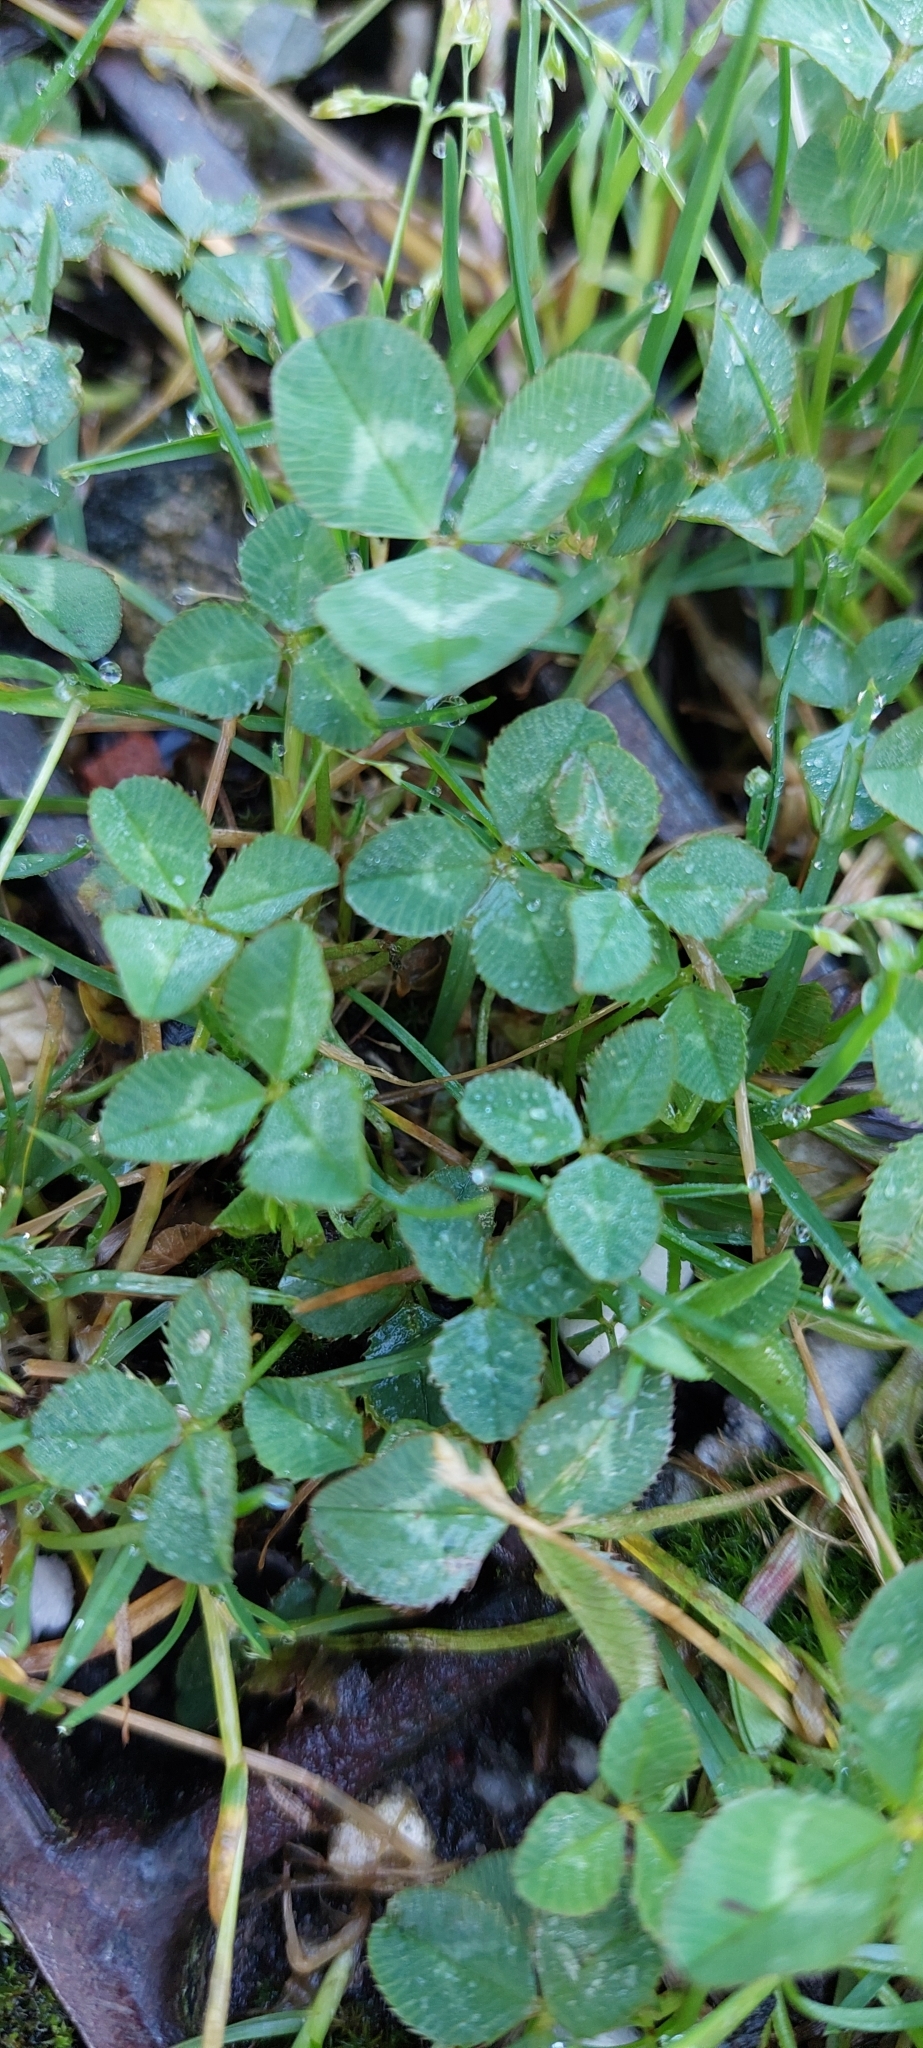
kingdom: Plantae
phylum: Tracheophyta
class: Magnoliopsida
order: Fabales
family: Fabaceae
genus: Trifolium
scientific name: Trifolium repens
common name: White clover
